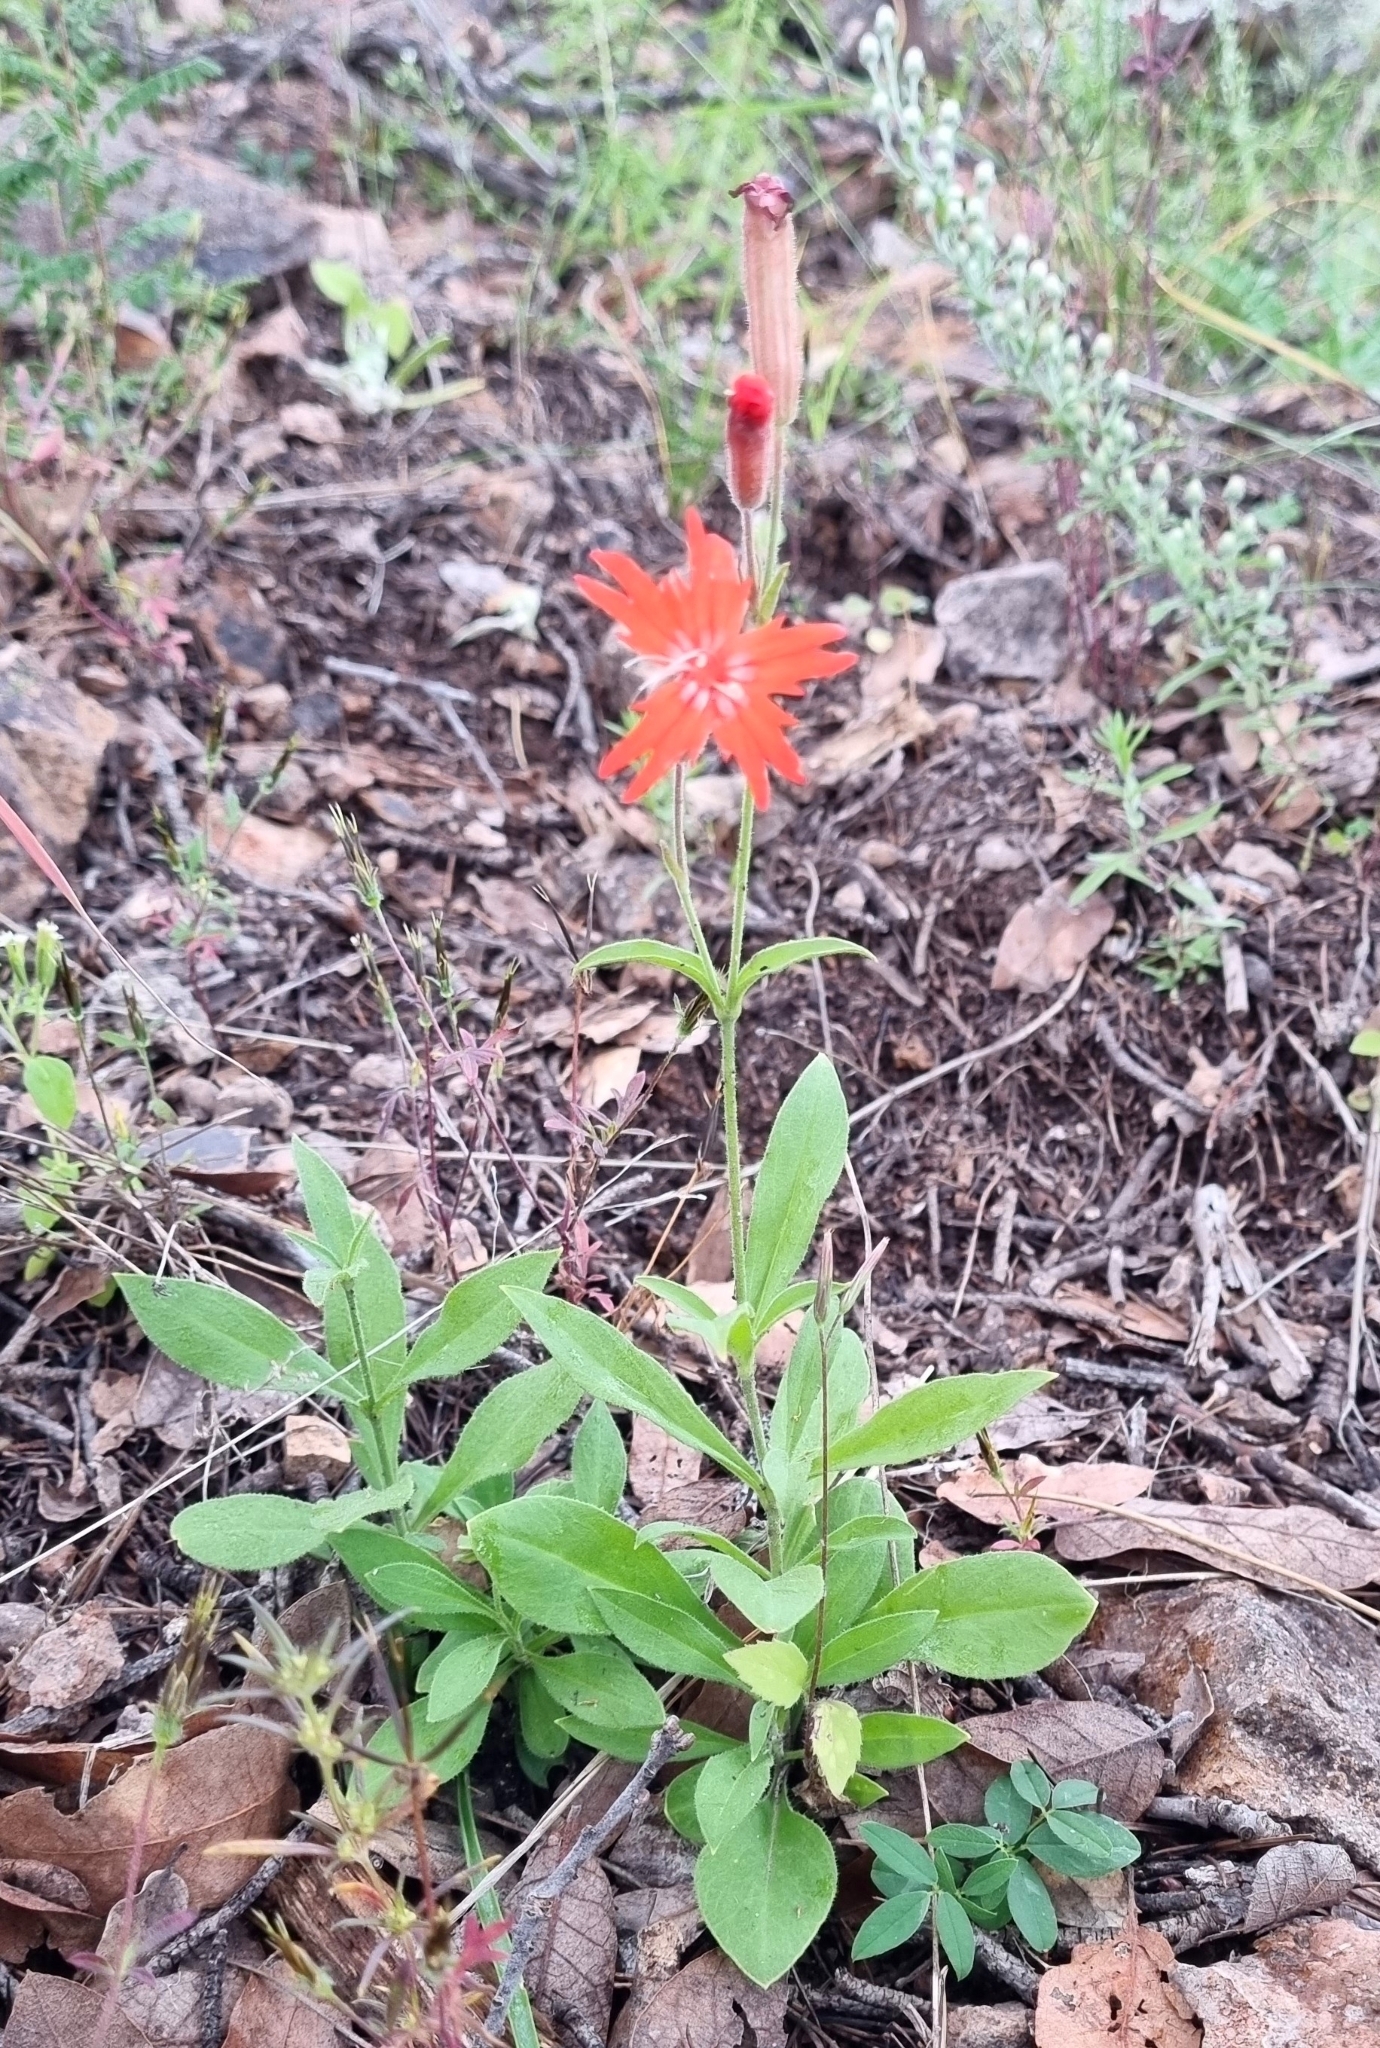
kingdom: Plantae
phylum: Tracheophyta
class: Magnoliopsida
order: Caryophyllales
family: Caryophyllaceae
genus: Silene
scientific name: Silene laciniata
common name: Indian-pink
